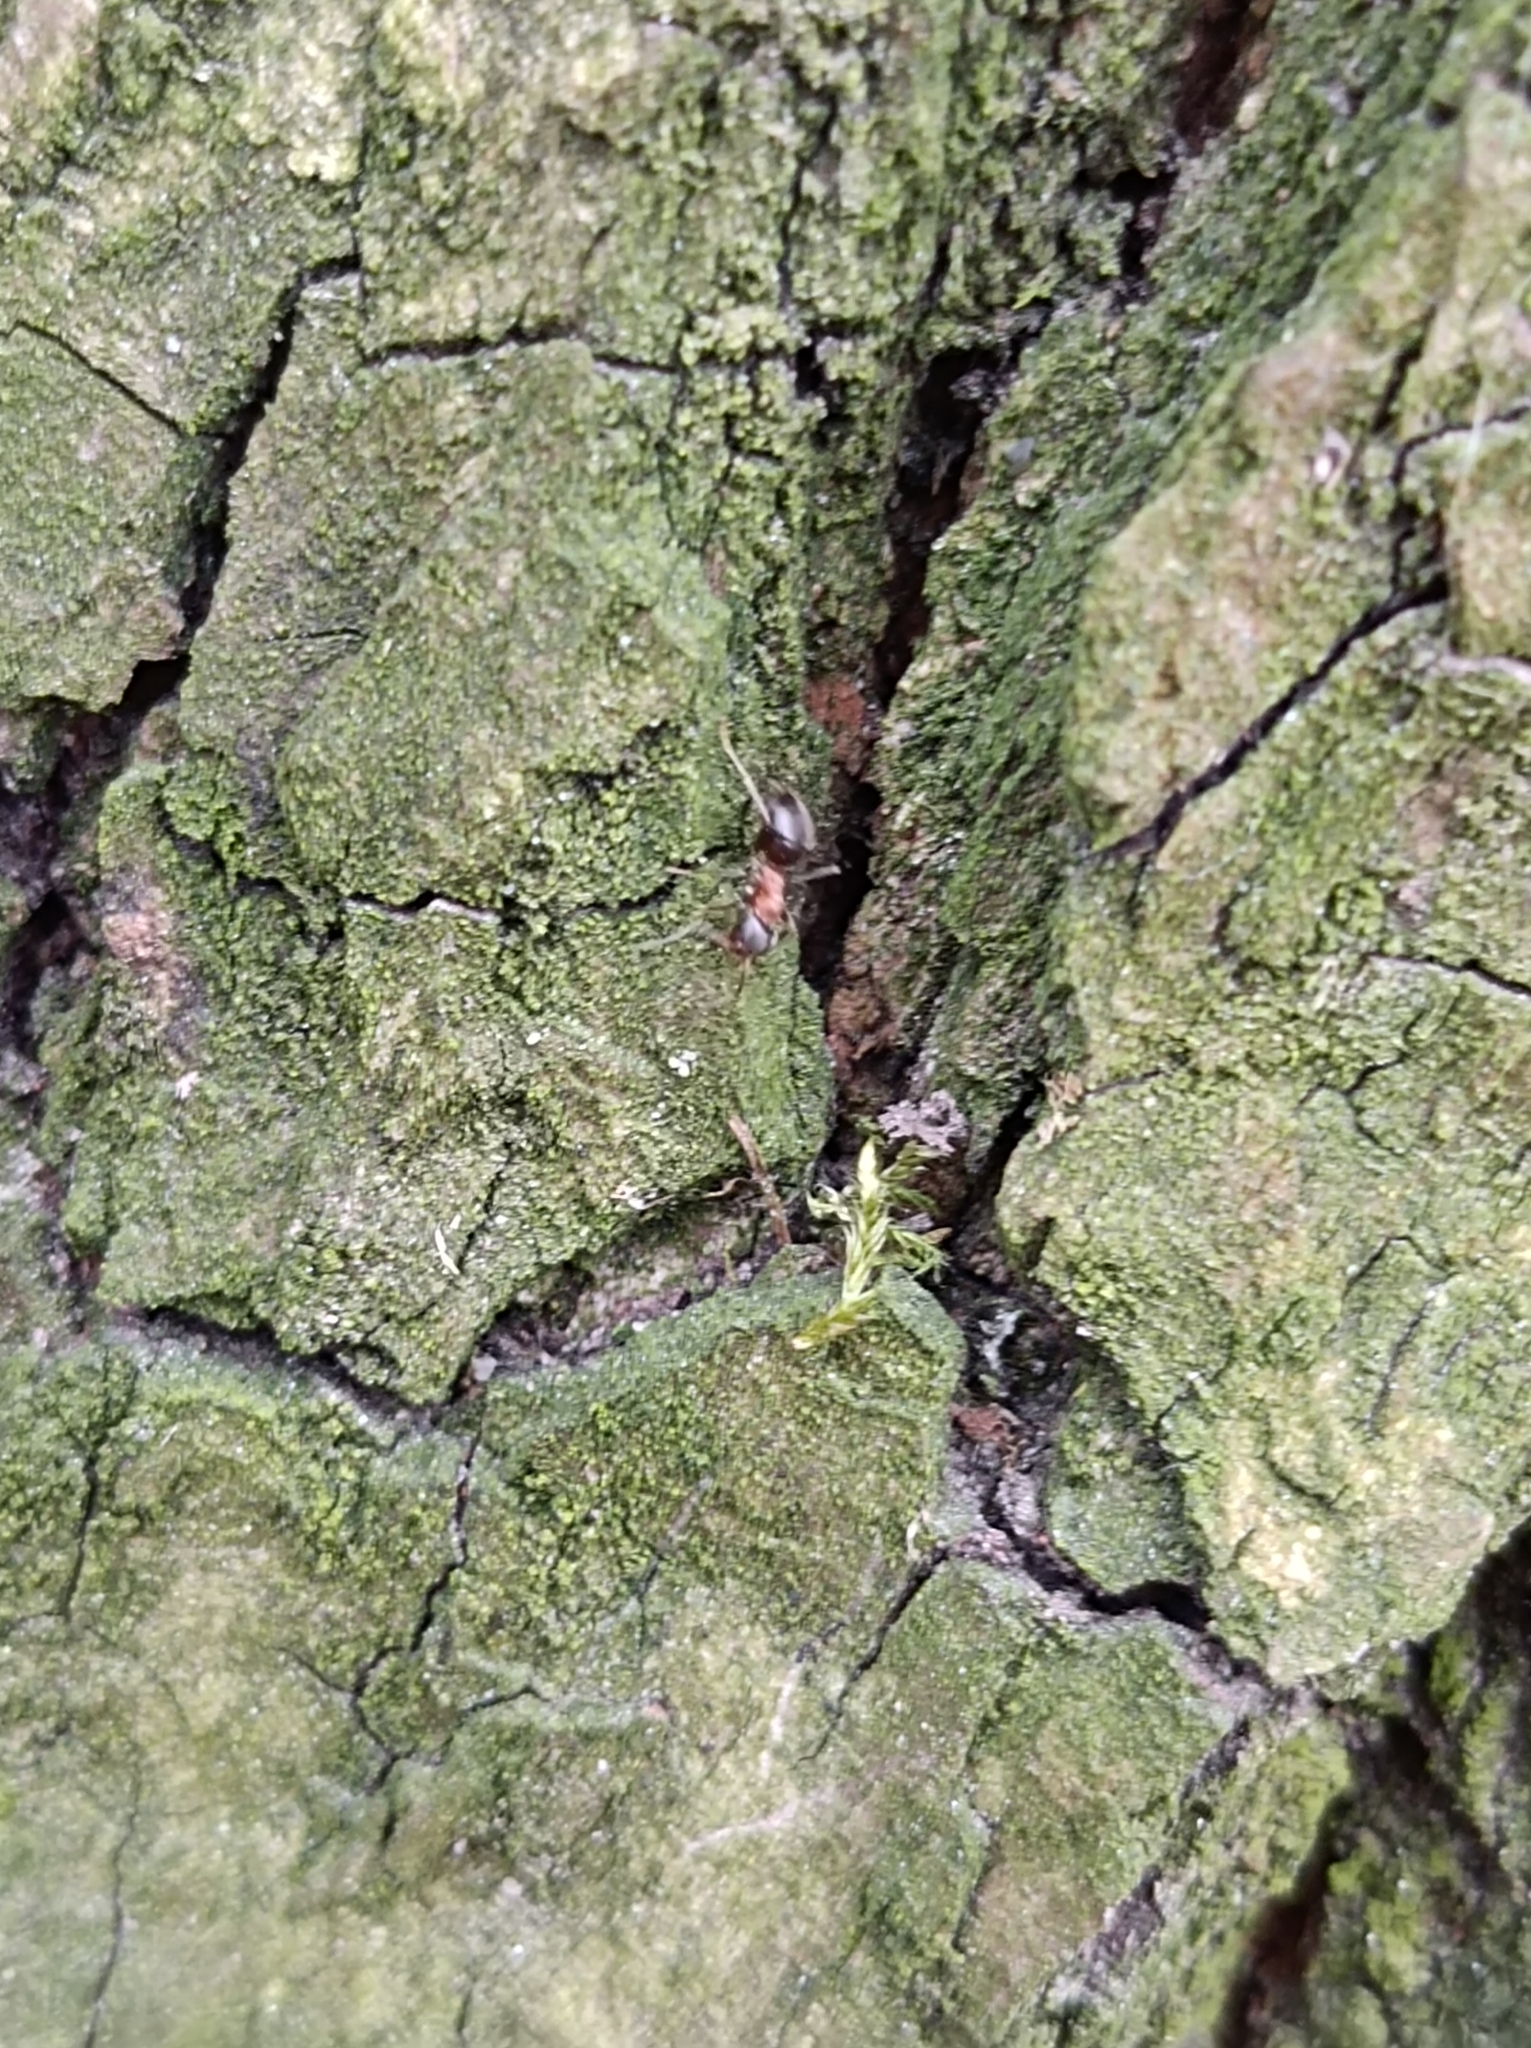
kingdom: Animalia
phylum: Arthropoda
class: Insecta
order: Hymenoptera
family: Formicidae
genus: Lasius
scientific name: Lasius emarginatus
